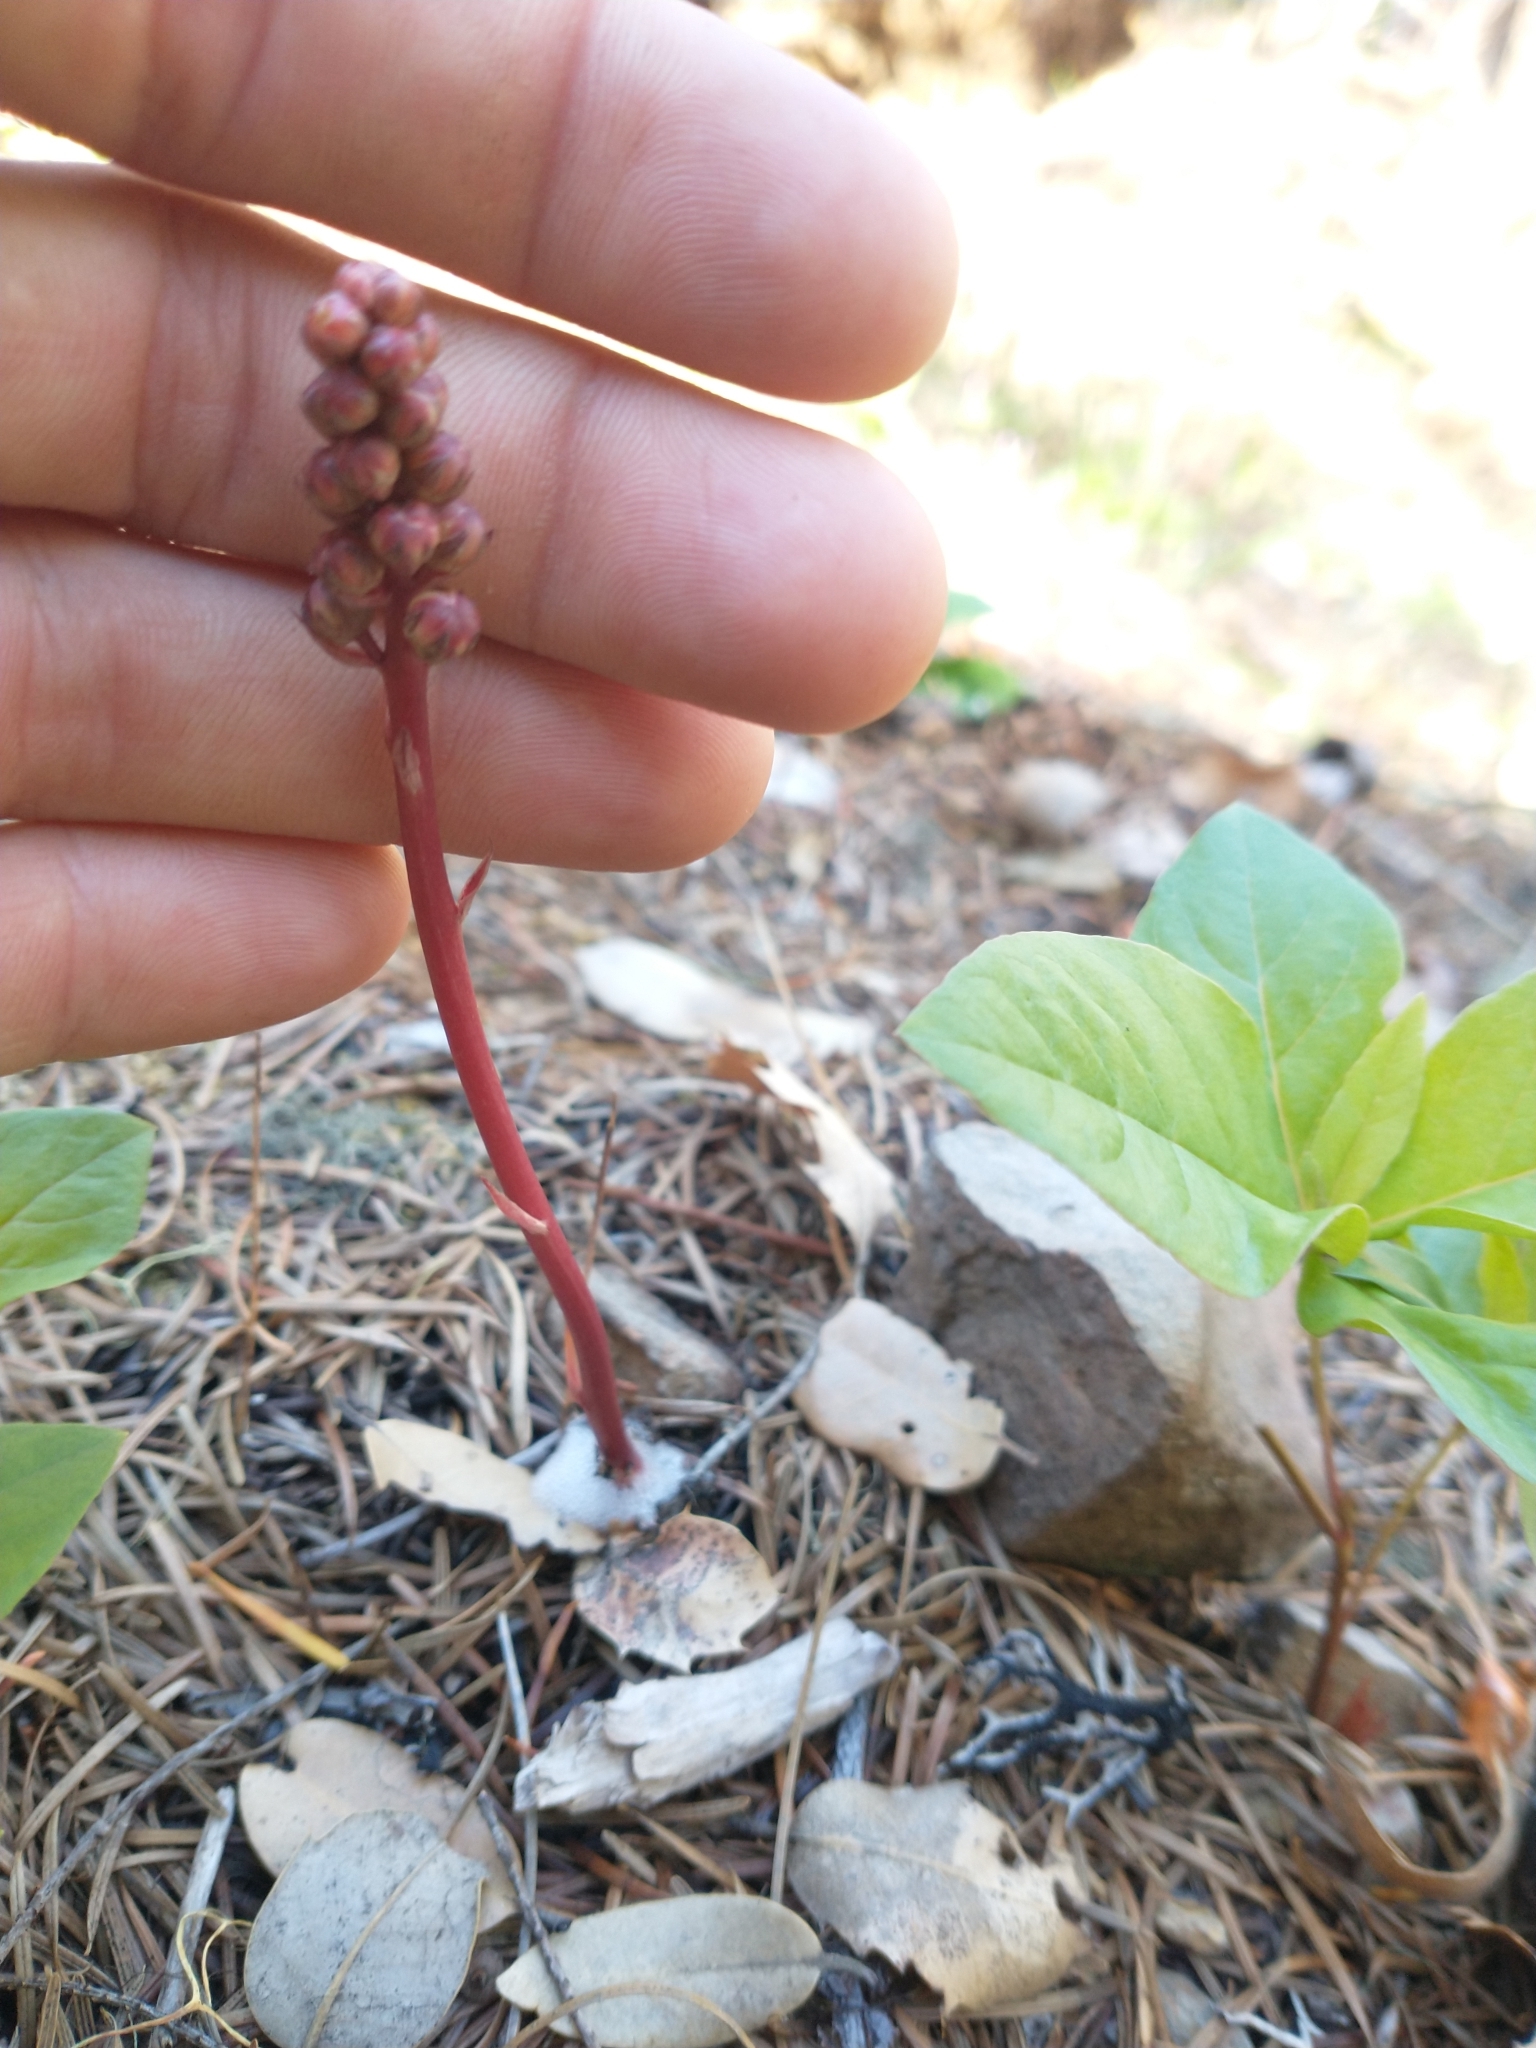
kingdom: Plantae
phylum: Tracheophyta
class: Magnoliopsida
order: Ericales
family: Ericaceae
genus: Pyrola
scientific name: Pyrola aphylla
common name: Leafless wintergreen
